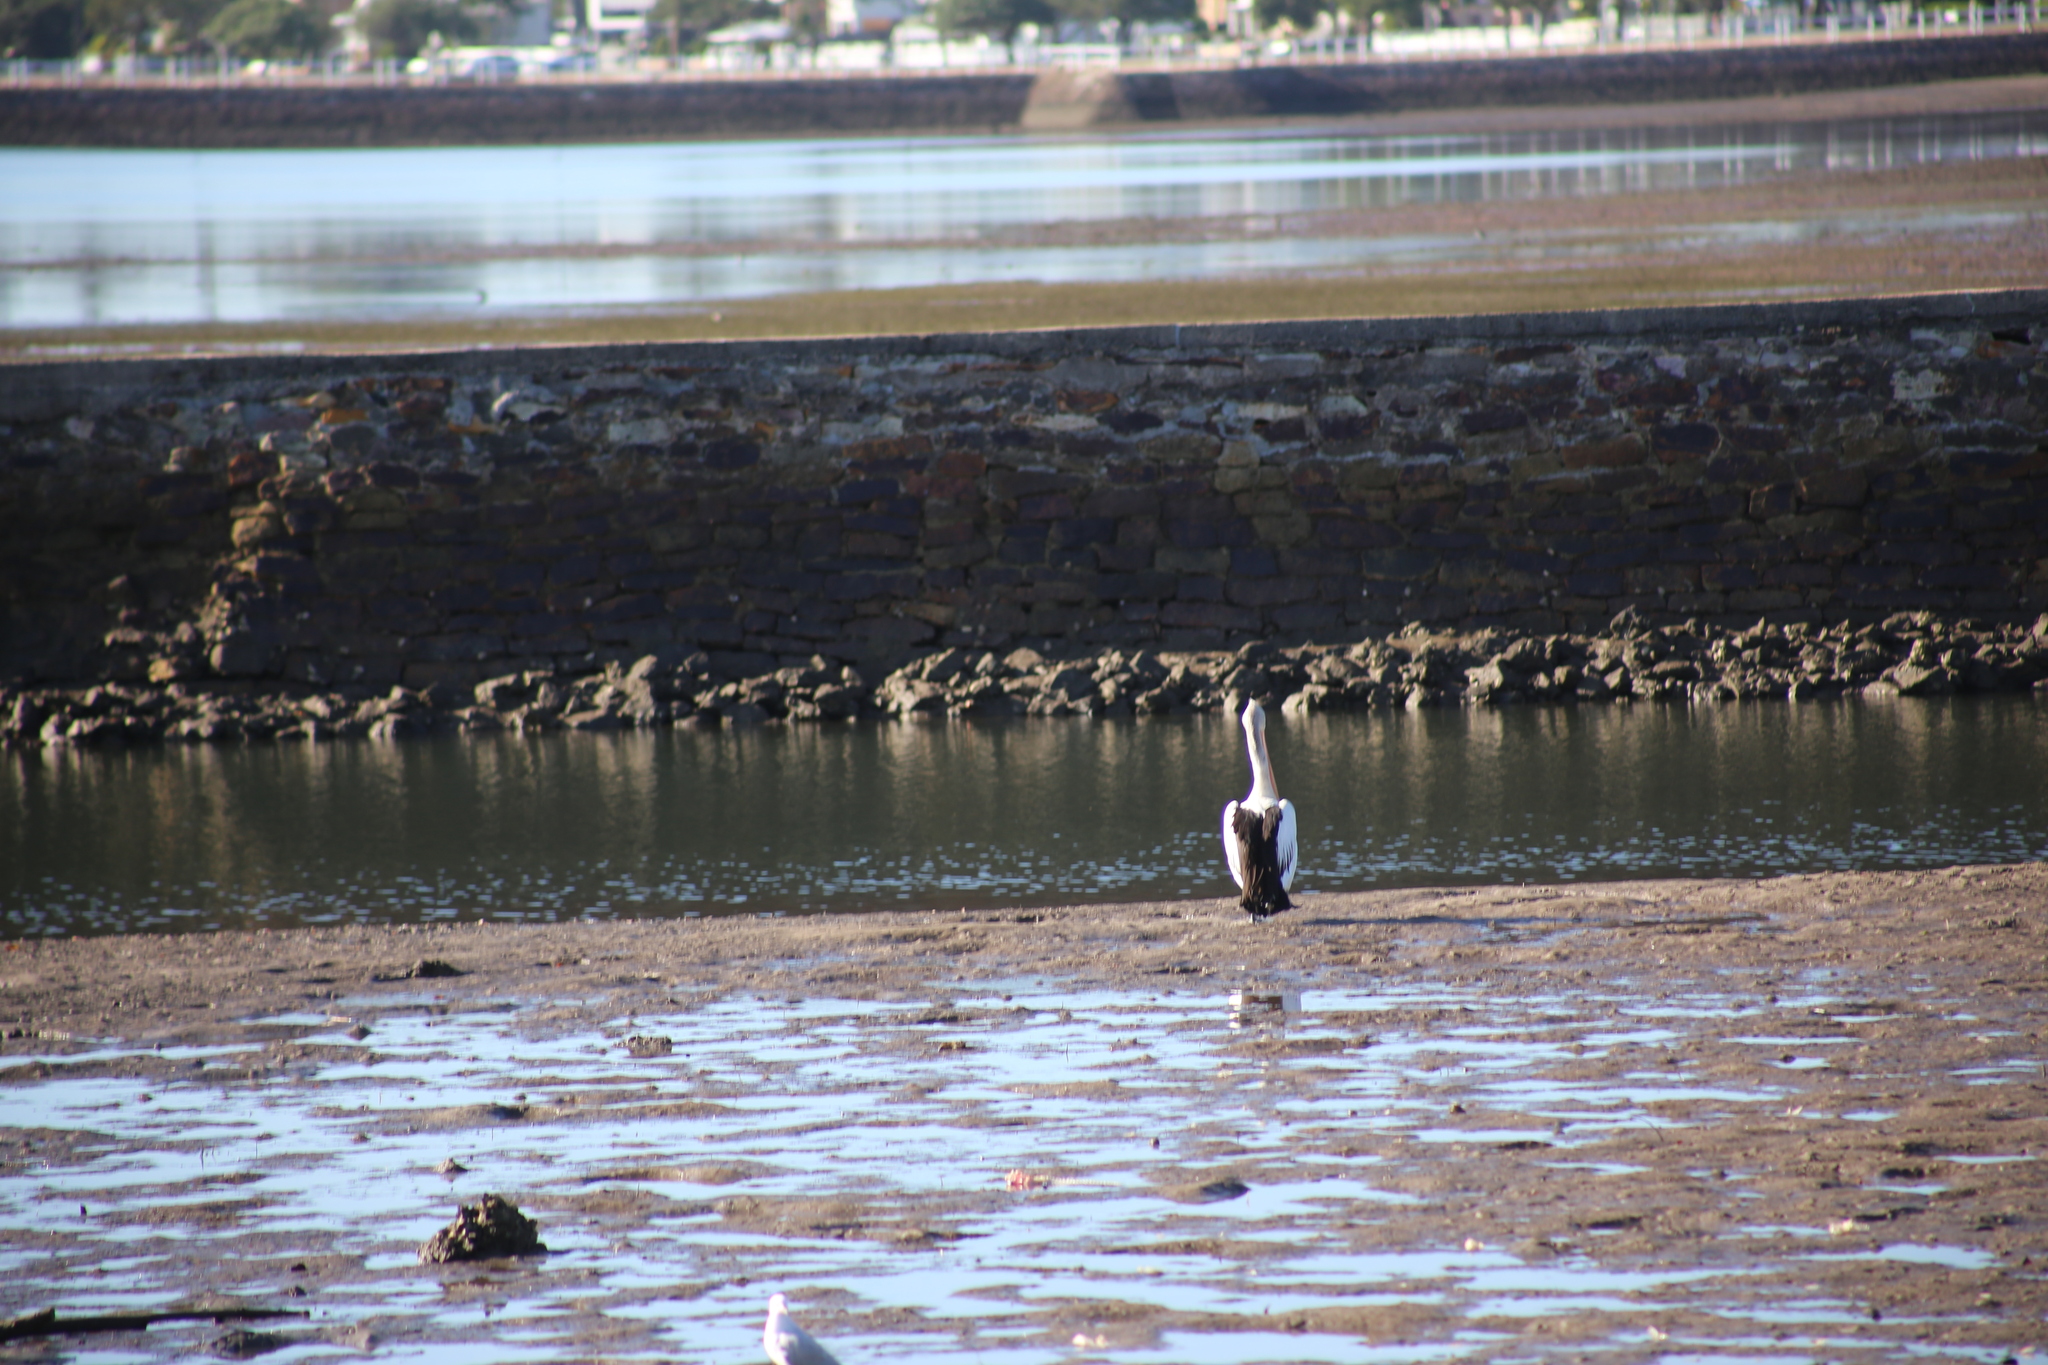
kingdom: Animalia
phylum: Chordata
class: Aves
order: Pelecaniformes
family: Pelecanidae
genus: Pelecanus
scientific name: Pelecanus conspicillatus
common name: Australian pelican
